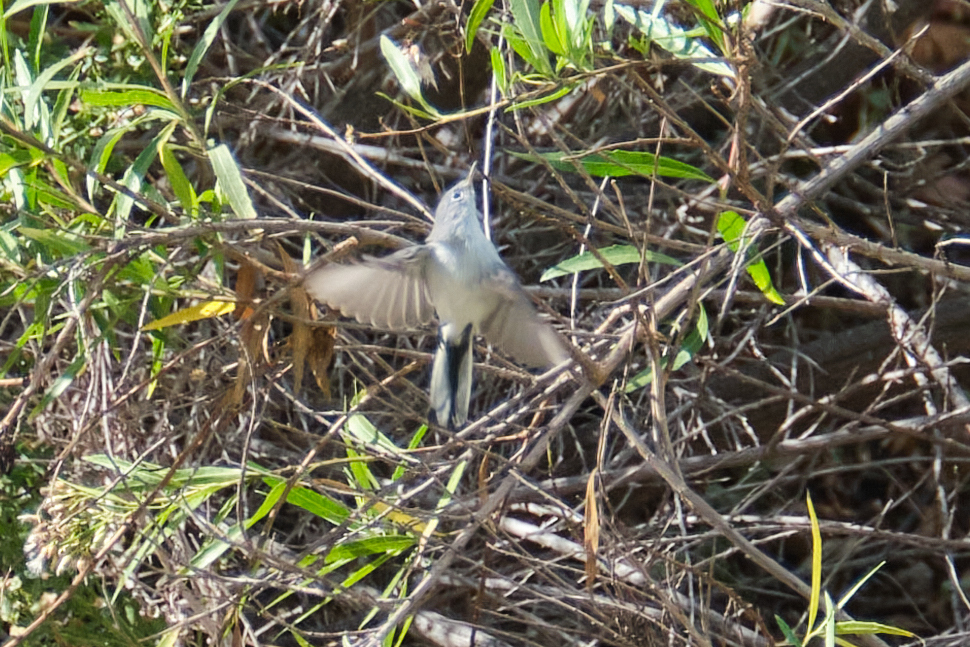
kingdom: Animalia
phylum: Chordata
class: Aves
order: Passeriformes
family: Polioptilidae
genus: Polioptila
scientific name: Polioptila caerulea
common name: Blue-gray gnatcatcher
